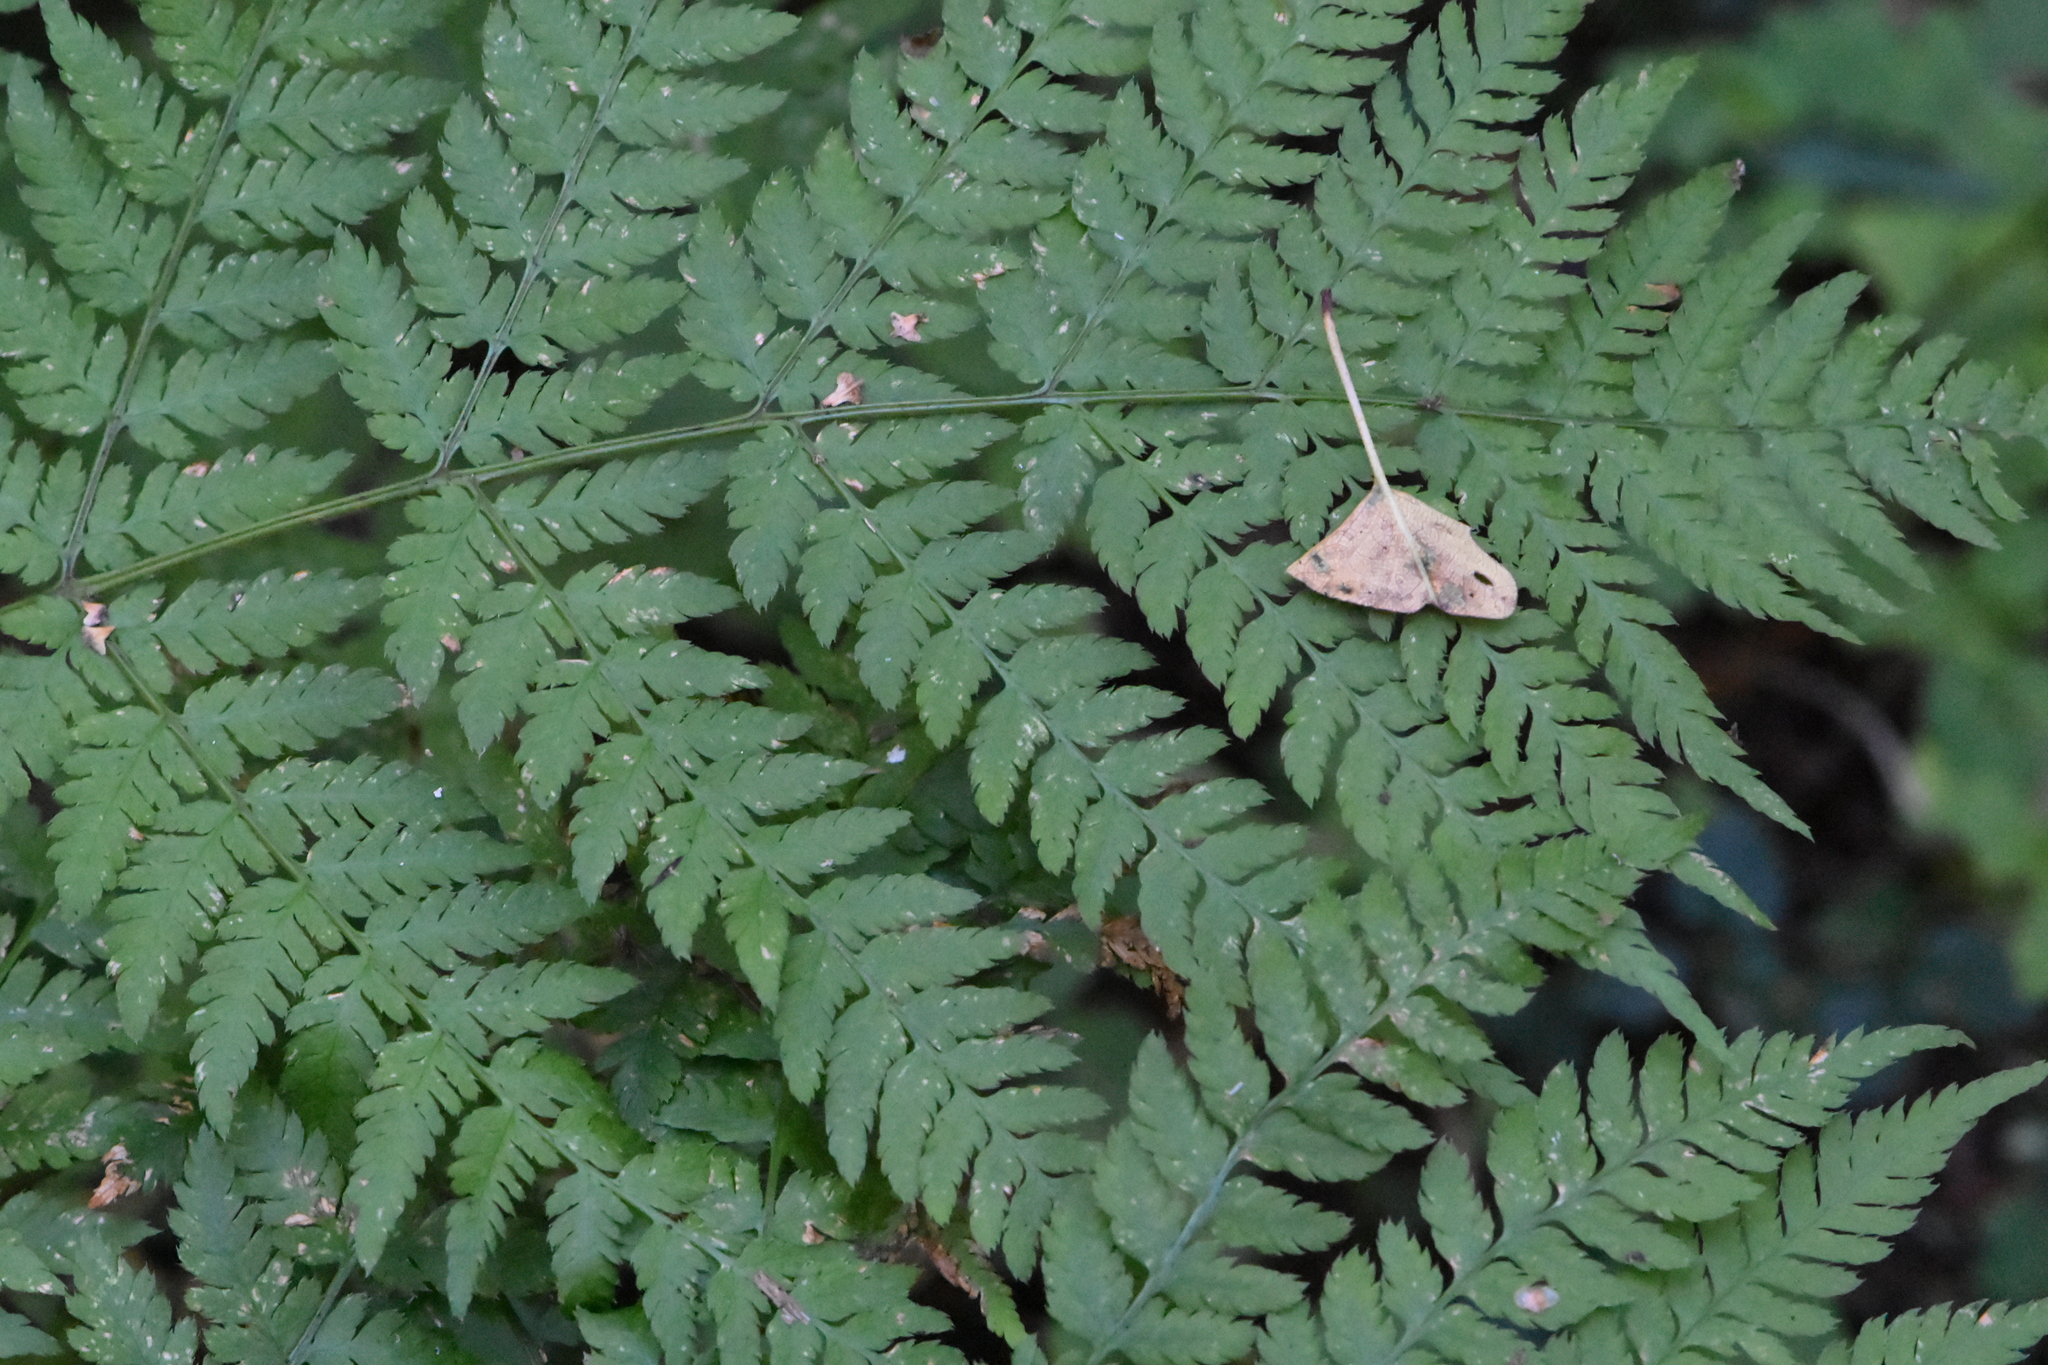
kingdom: Plantae
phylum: Tracheophyta
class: Polypodiopsida
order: Polypodiales
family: Dryopteridaceae
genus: Dryopteris
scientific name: Dryopteris expansa
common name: Northern buckler fern
